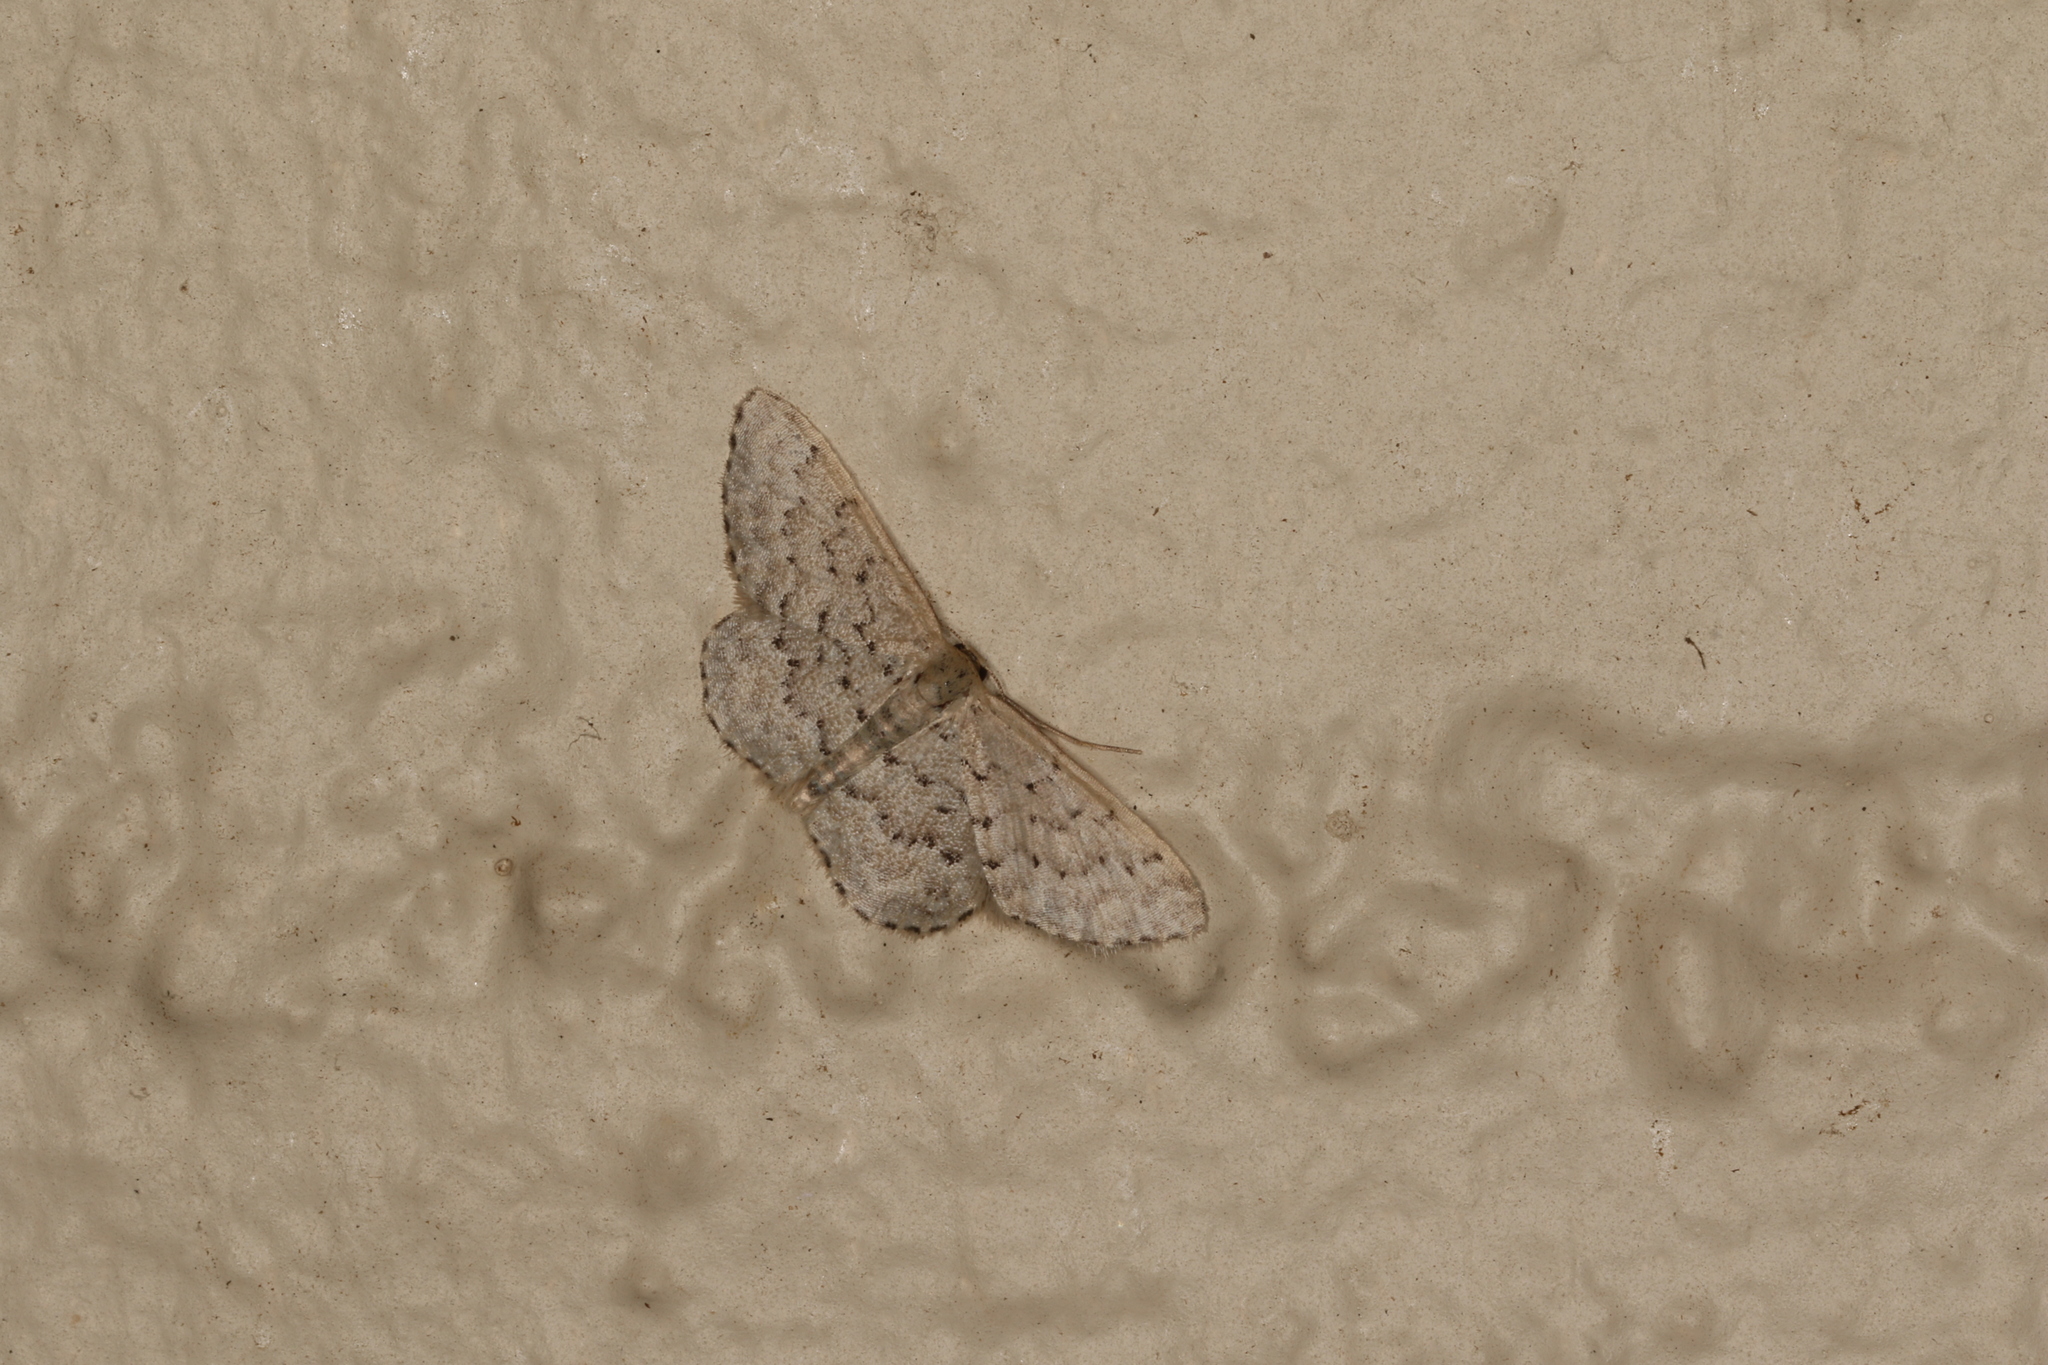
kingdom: Animalia
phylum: Arthropoda
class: Insecta
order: Lepidoptera
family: Geometridae
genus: Idaea
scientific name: Idaea philocosma
